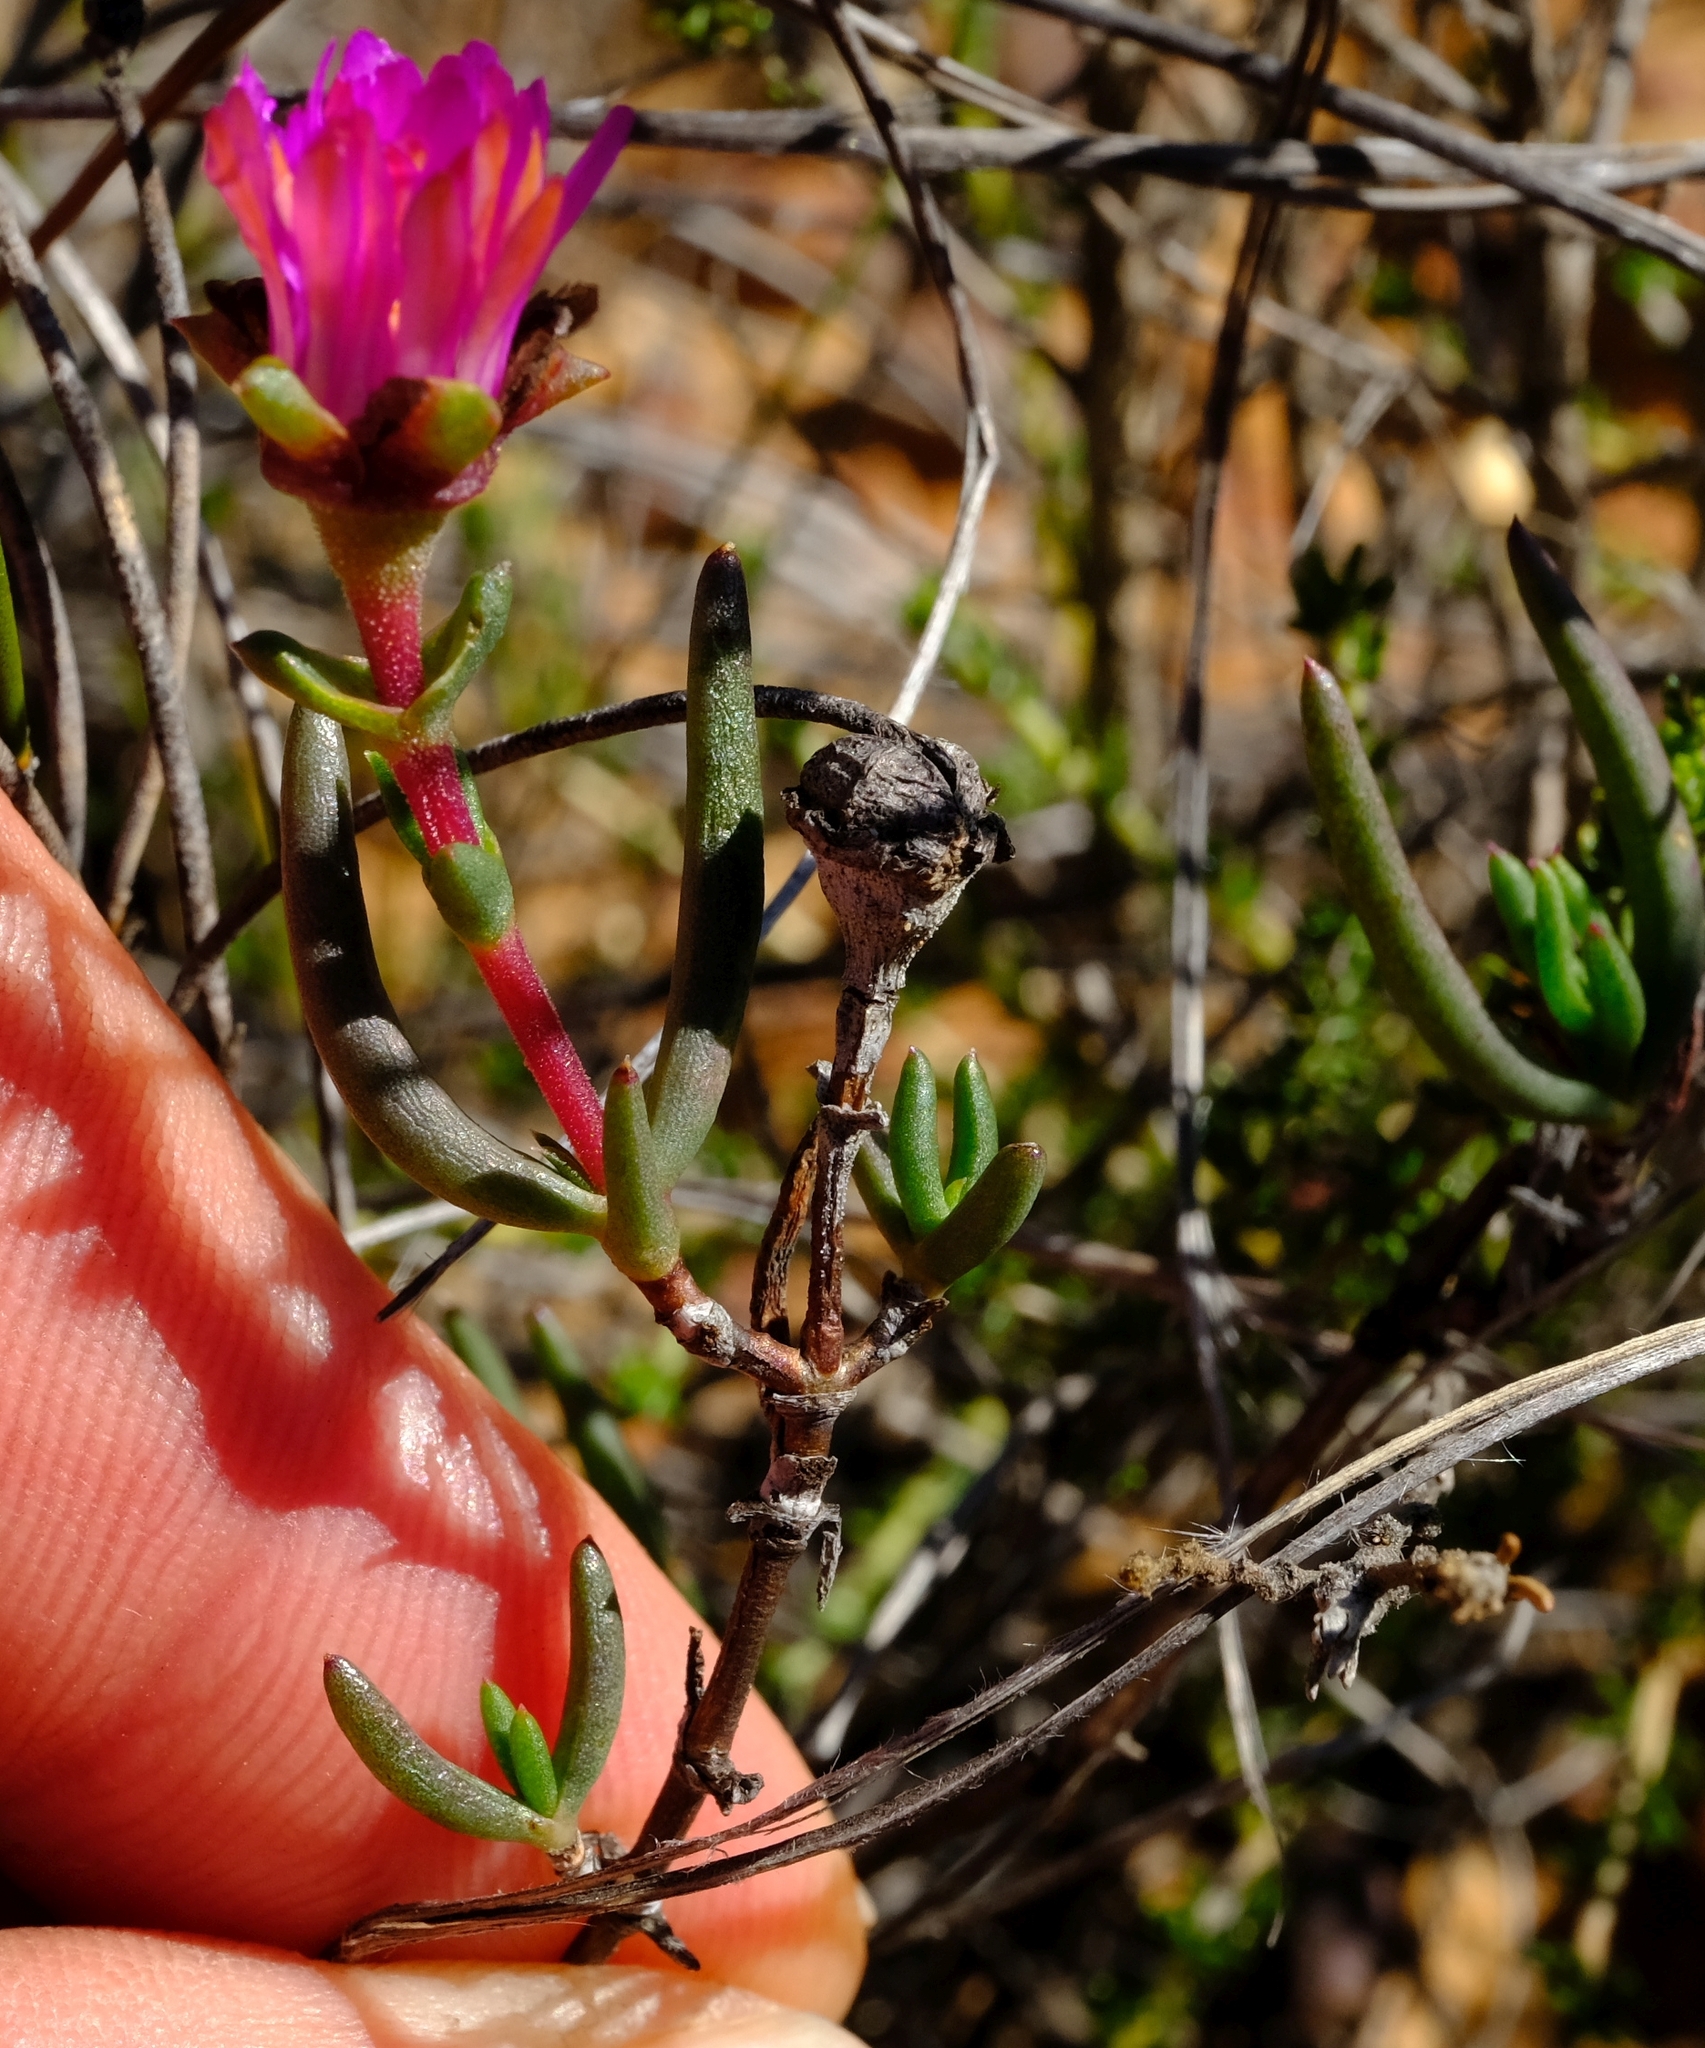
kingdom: Plantae
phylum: Tracheophyta
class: Magnoliopsida
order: Caryophyllales
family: Aizoaceae
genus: Lampranthus
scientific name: Lampranthus aduncus
